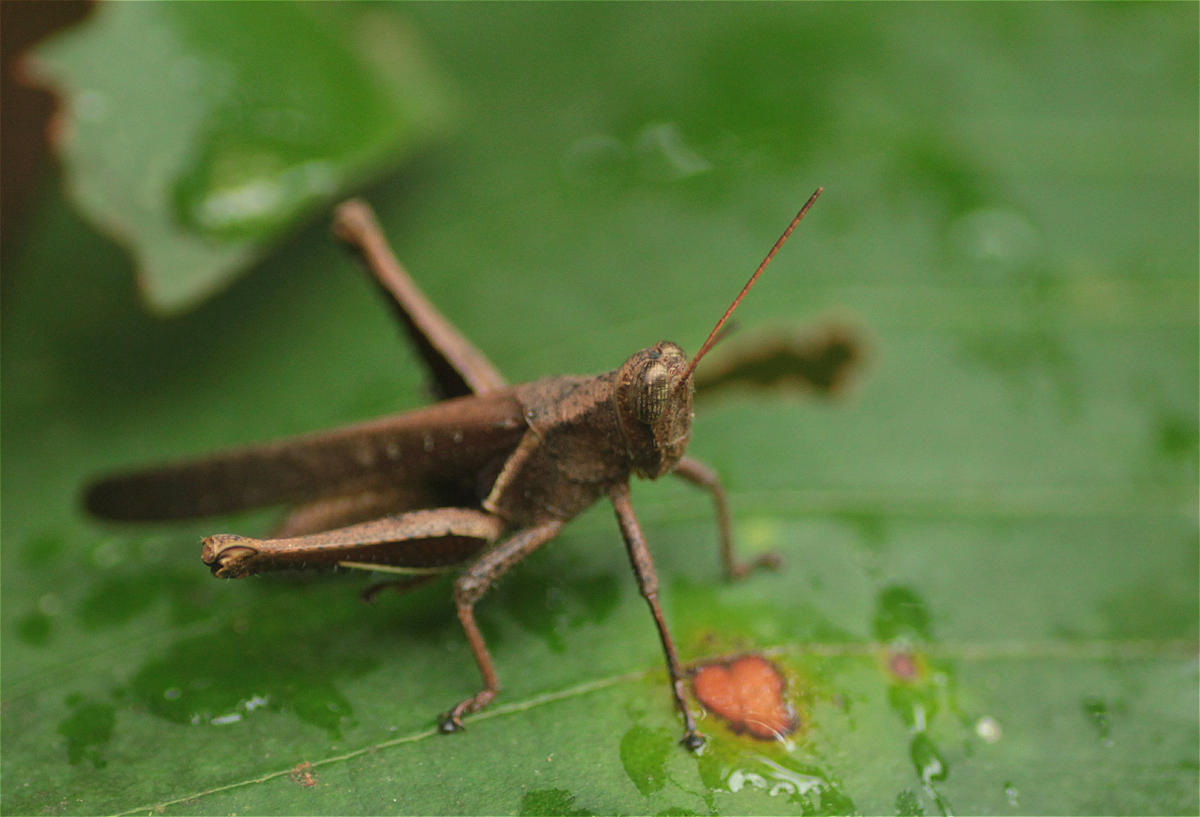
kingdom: Animalia
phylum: Arthropoda
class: Insecta
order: Orthoptera
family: Acrididae
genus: Abracris
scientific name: Abracris flavolineata
